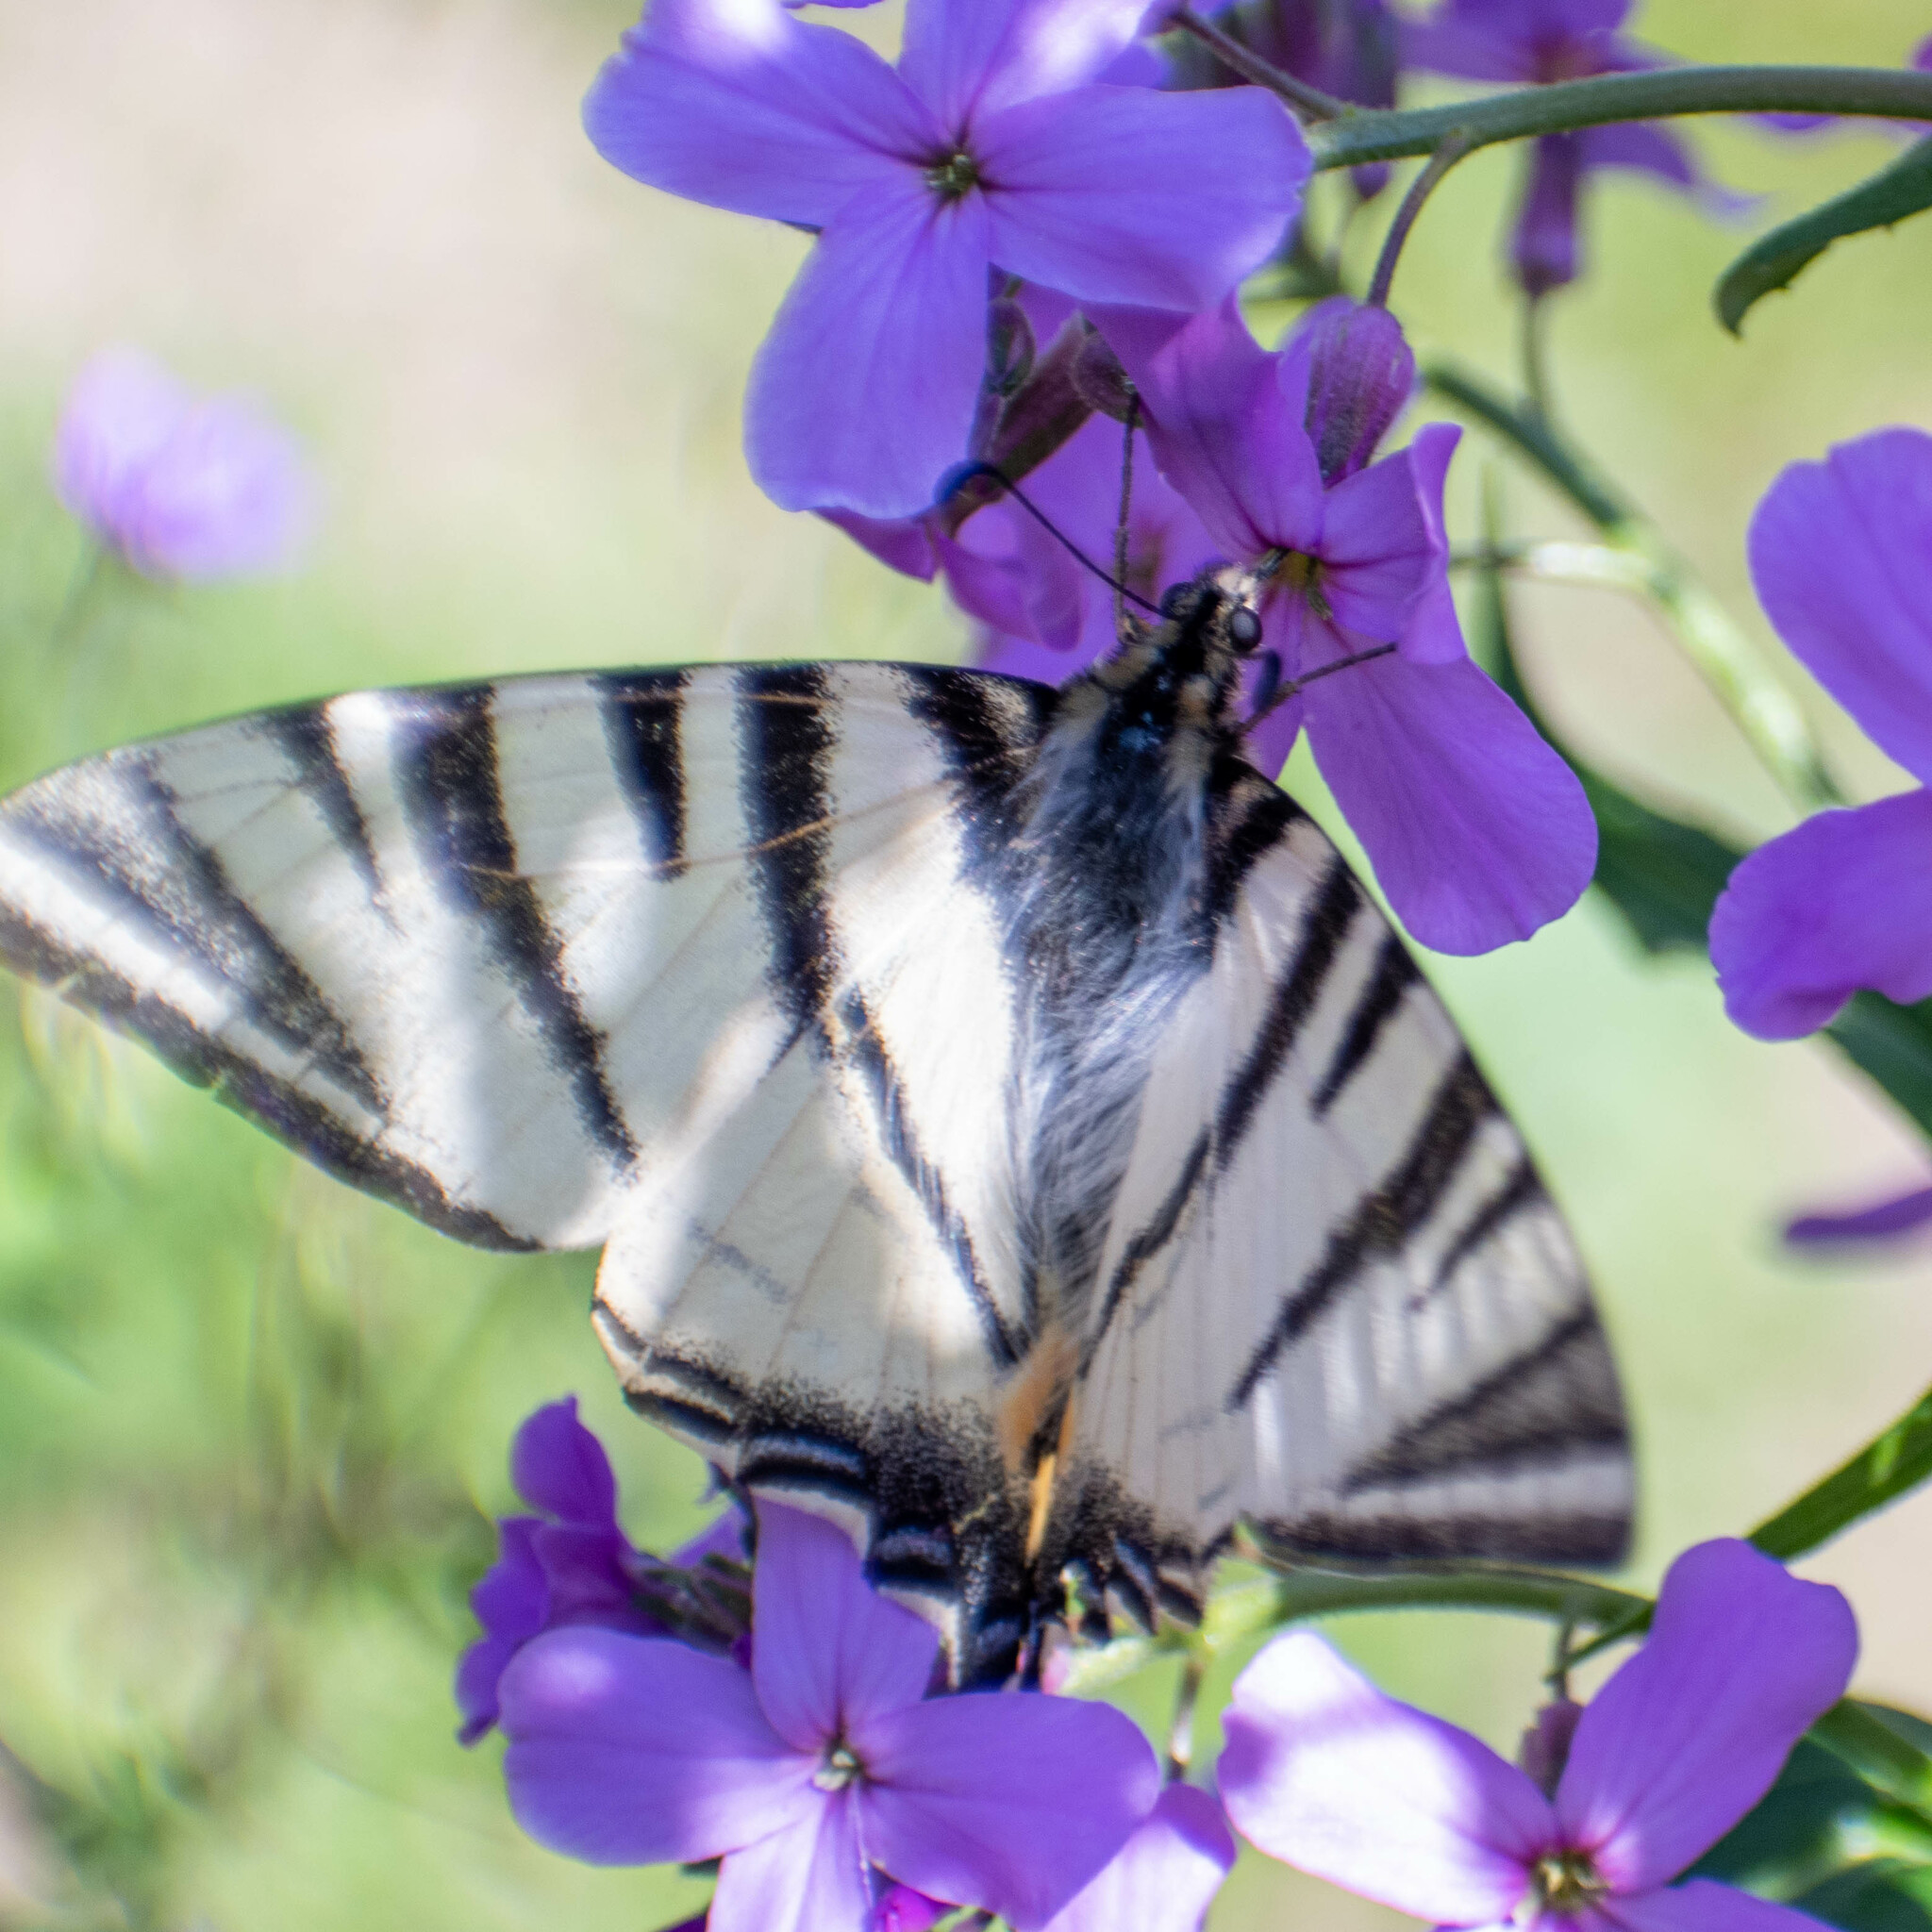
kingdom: Animalia
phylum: Arthropoda
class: Insecta
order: Lepidoptera
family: Papilionidae
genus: Iphiclides
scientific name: Iphiclides podalirius
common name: Scarce swallowtail
